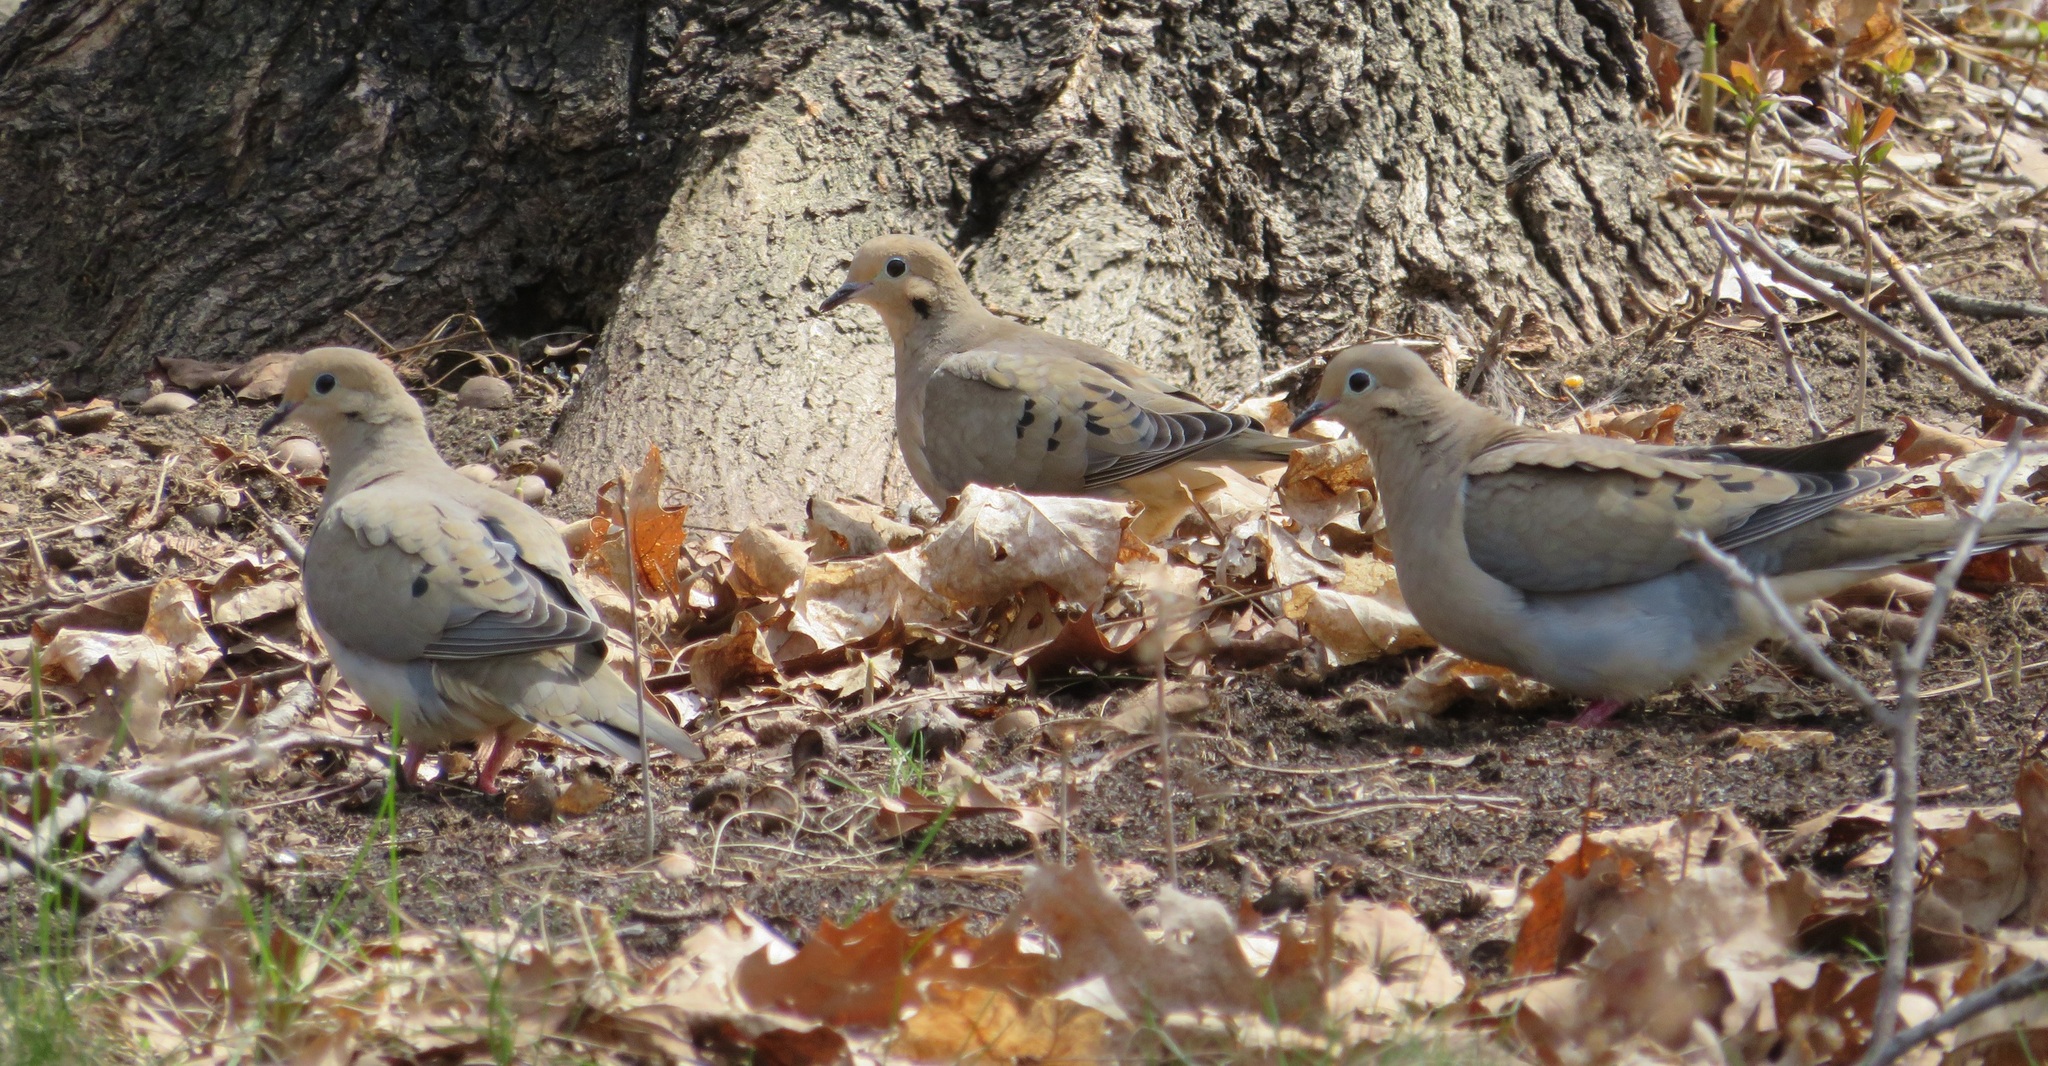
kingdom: Animalia
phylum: Chordata
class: Aves
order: Columbiformes
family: Columbidae
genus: Zenaida
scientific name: Zenaida macroura
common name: Mourning dove
